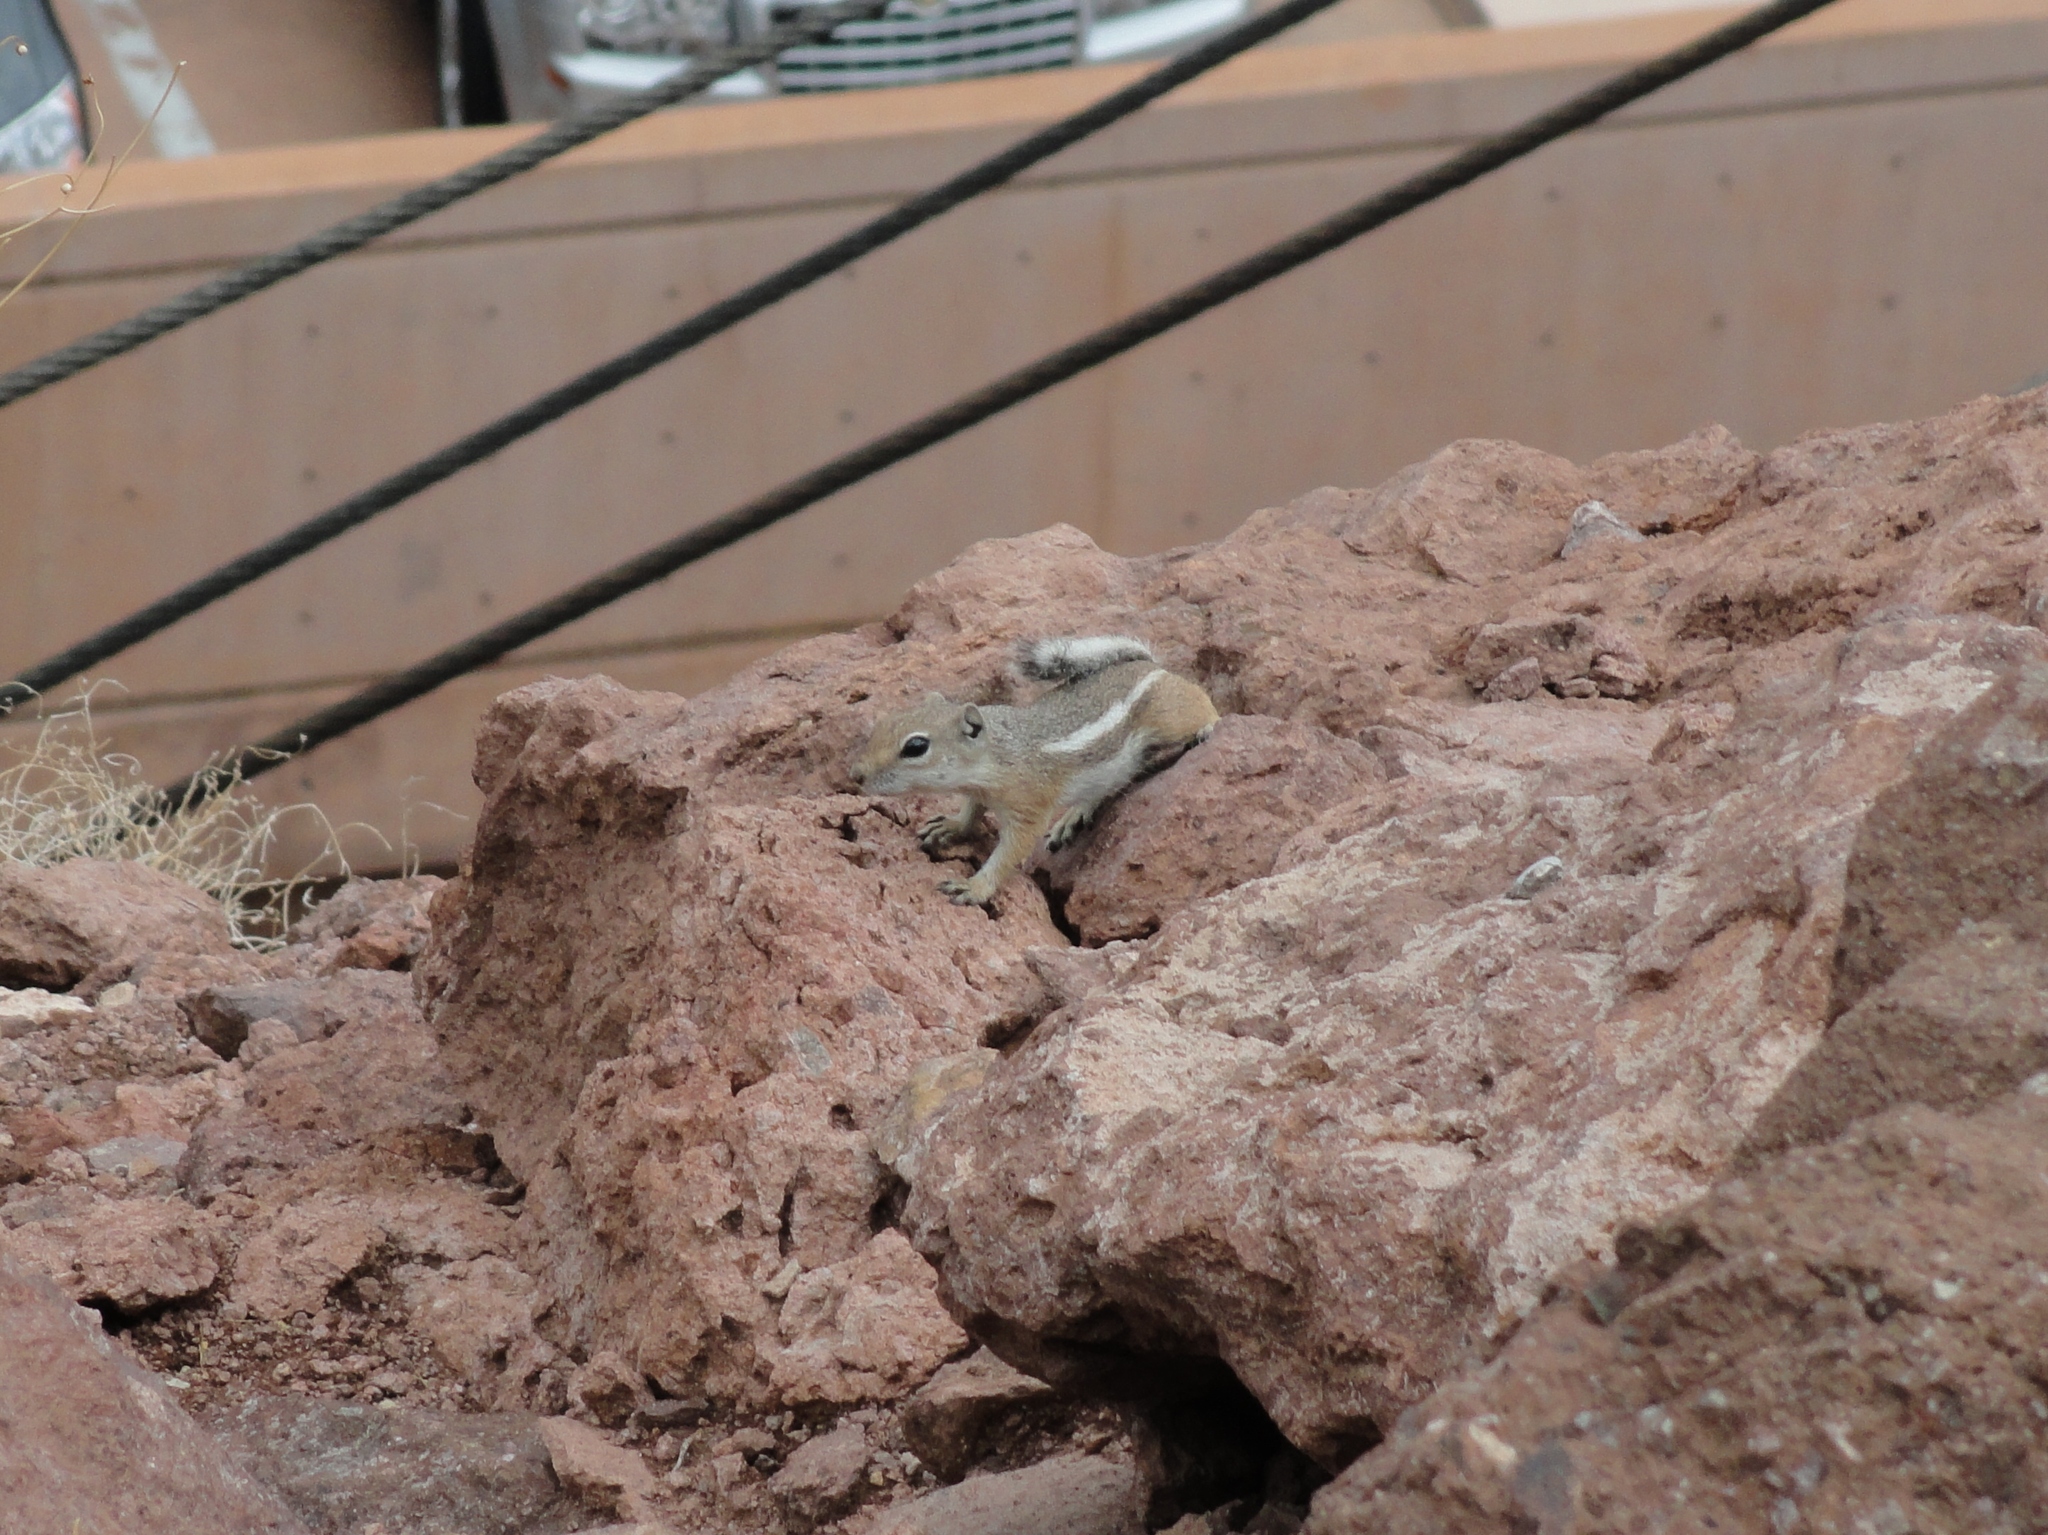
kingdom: Animalia
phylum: Chordata
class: Mammalia
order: Rodentia
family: Sciuridae
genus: Ammospermophilus
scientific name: Ammospermophilus leucurus
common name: White-tailed antelope squirrel
